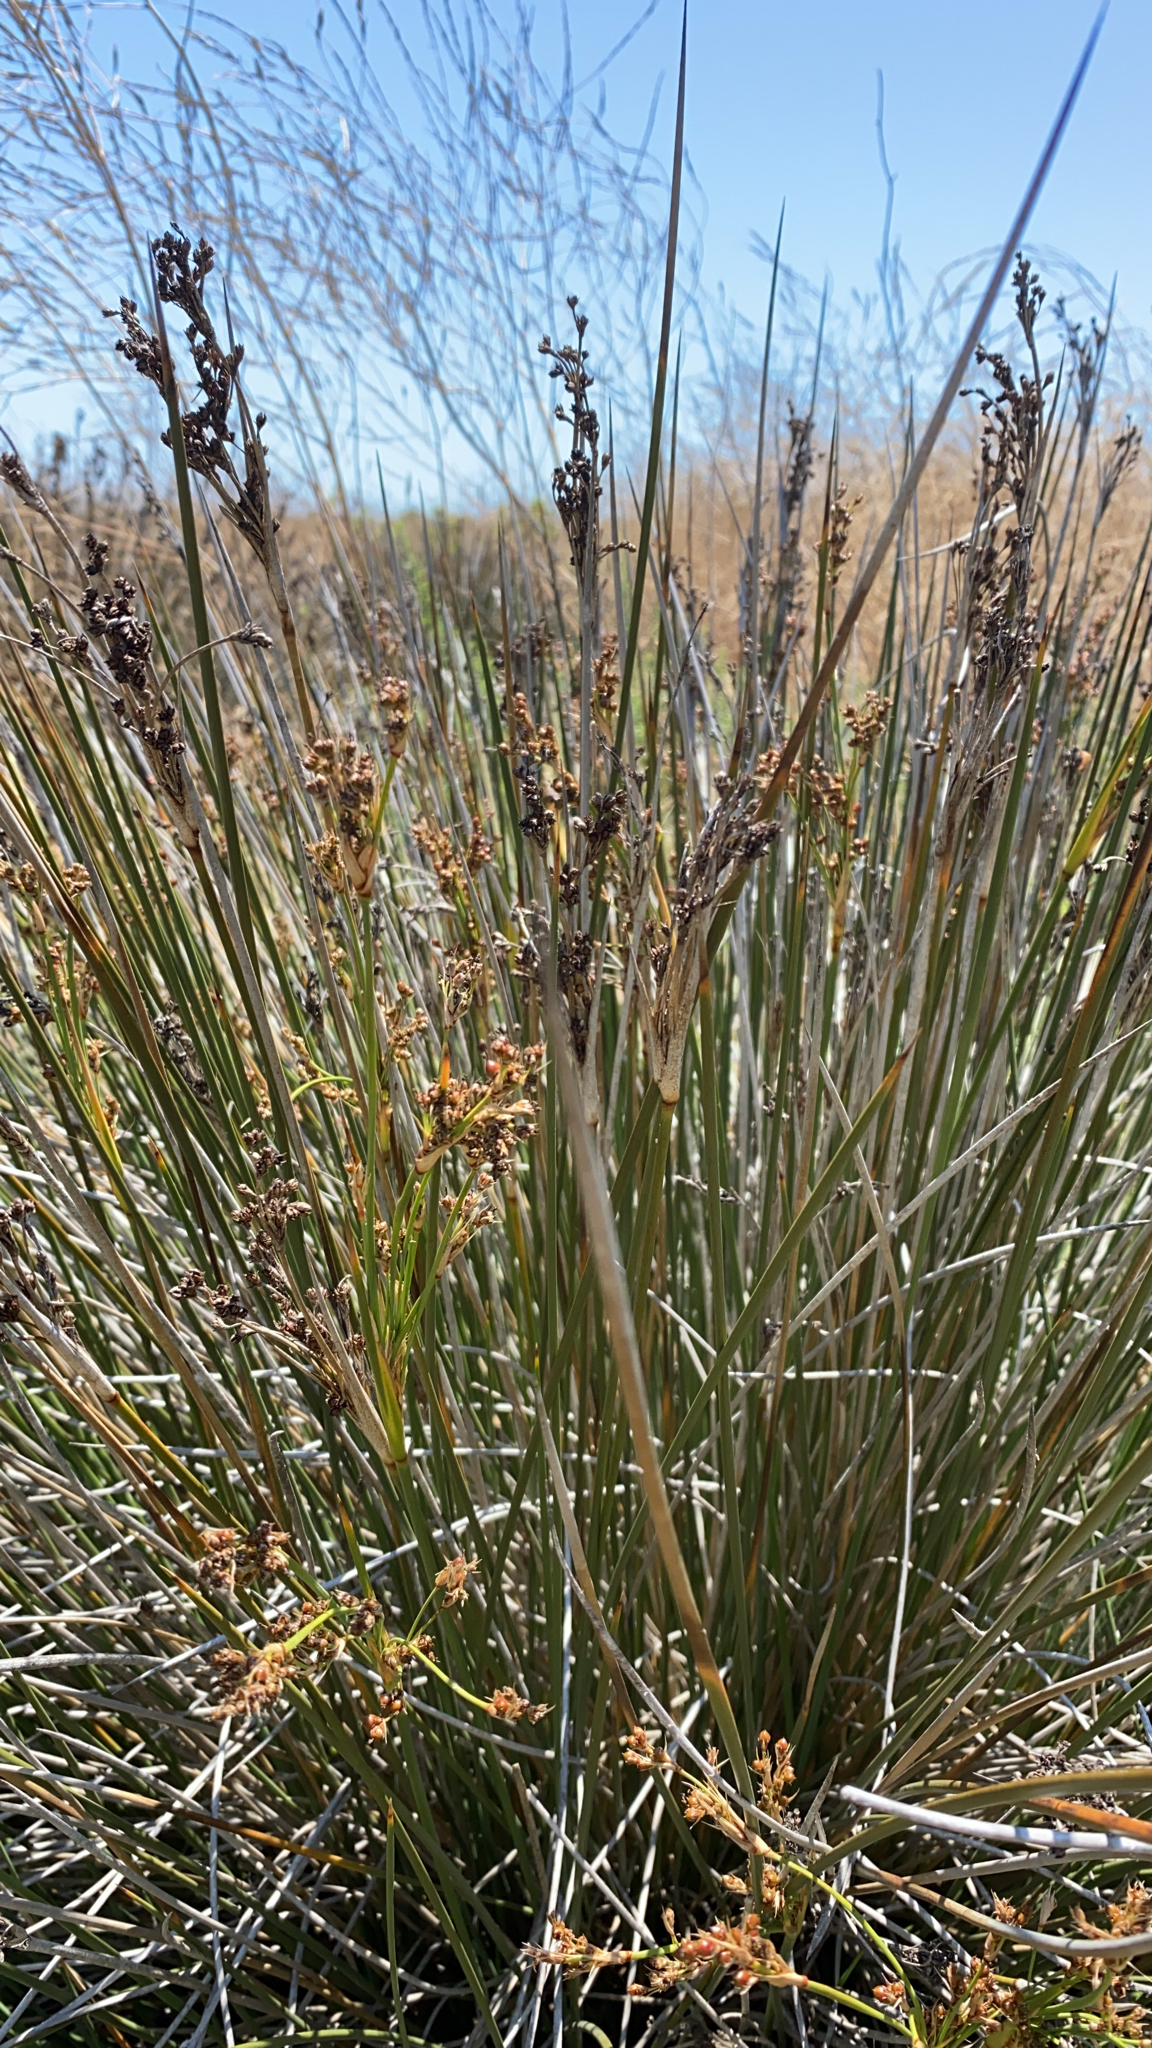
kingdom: Plantae
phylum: Tracheophyta
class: Liliopsida
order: Poales
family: Juncaceae
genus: Juncus
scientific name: Juncus acutus
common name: Sharp rush
